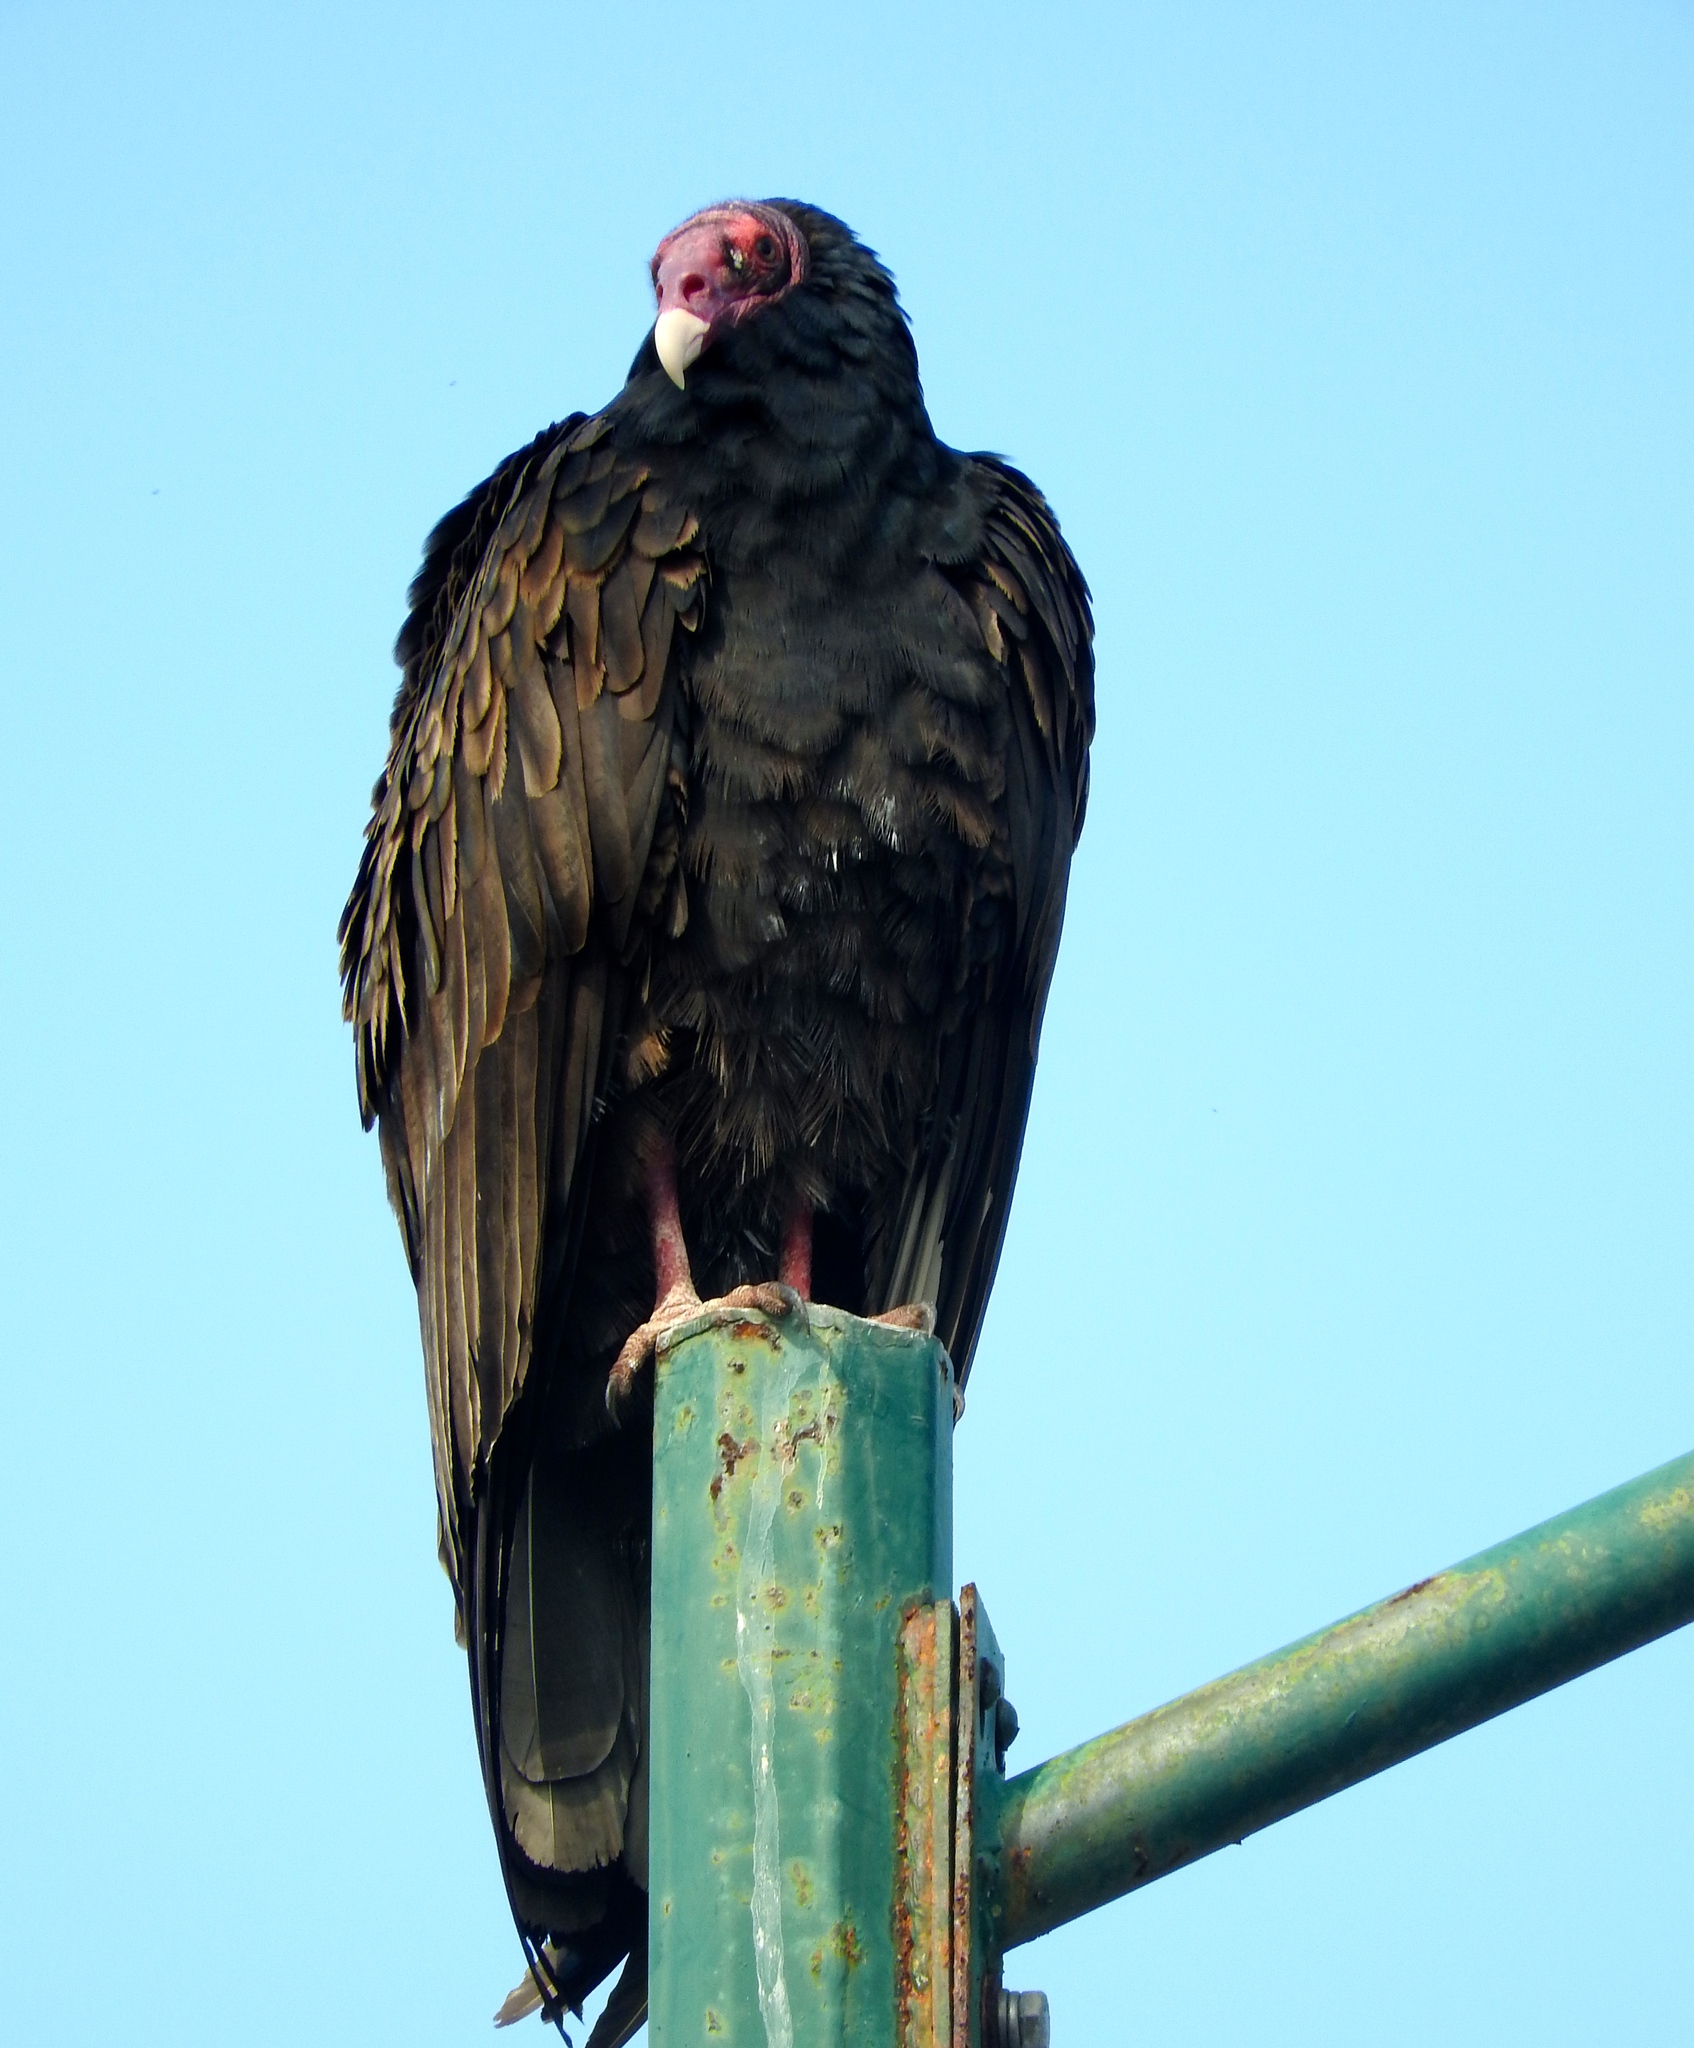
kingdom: Animalia
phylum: Chordata
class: Aves
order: Accipitriformes
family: Cathartidae
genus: Cathartes
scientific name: Cathartes aura
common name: Turkey vulture
